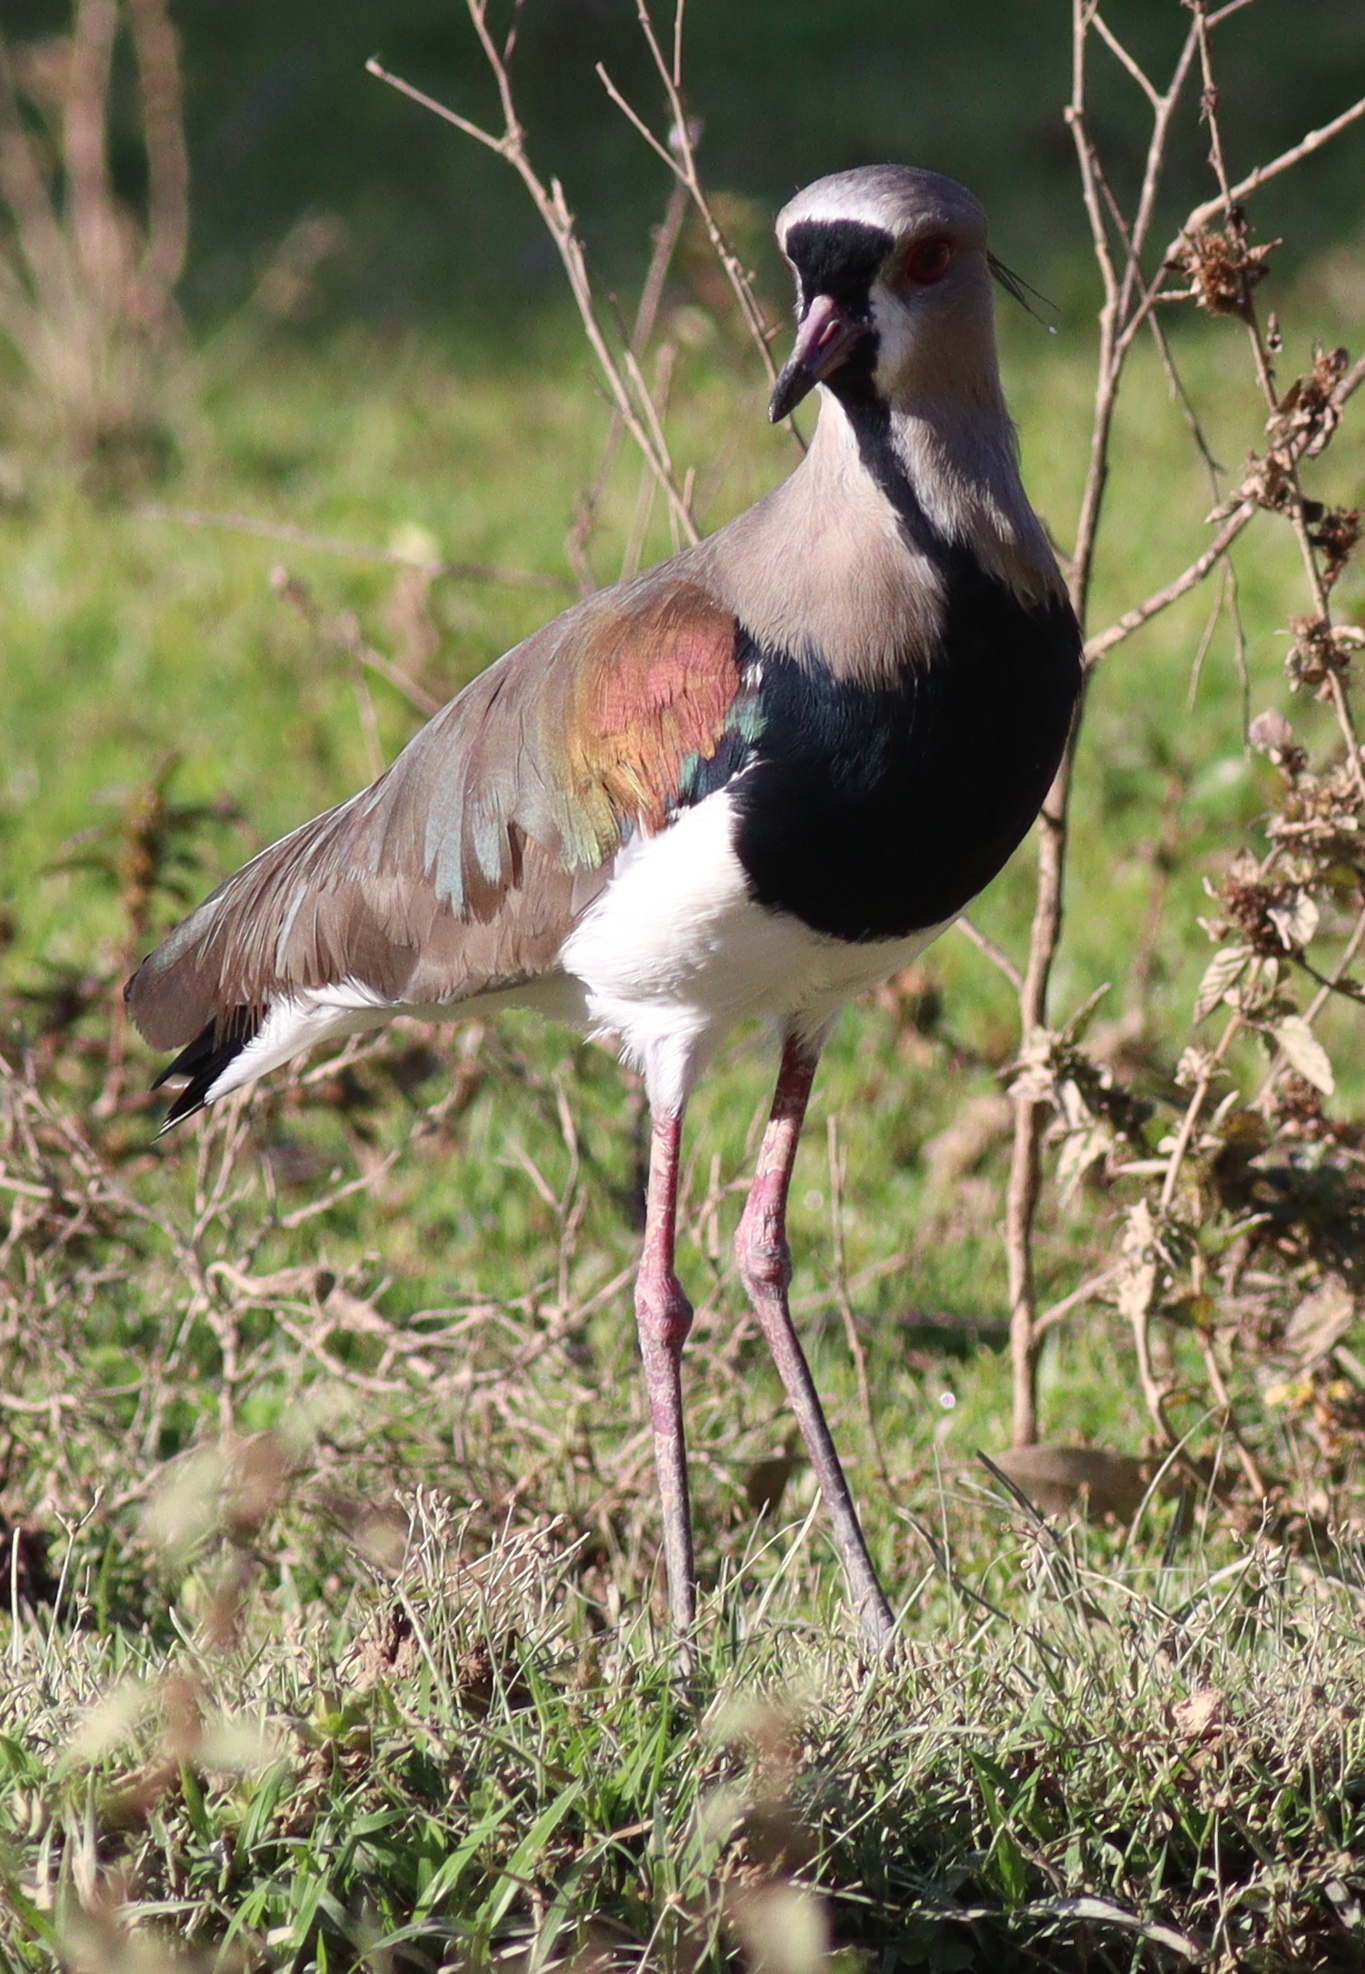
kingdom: Animalia
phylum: Chordata
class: Aves
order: Charadriiformes
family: Charadriidae
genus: Vanellus
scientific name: Vanellus chilensis
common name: Southern lapwing
